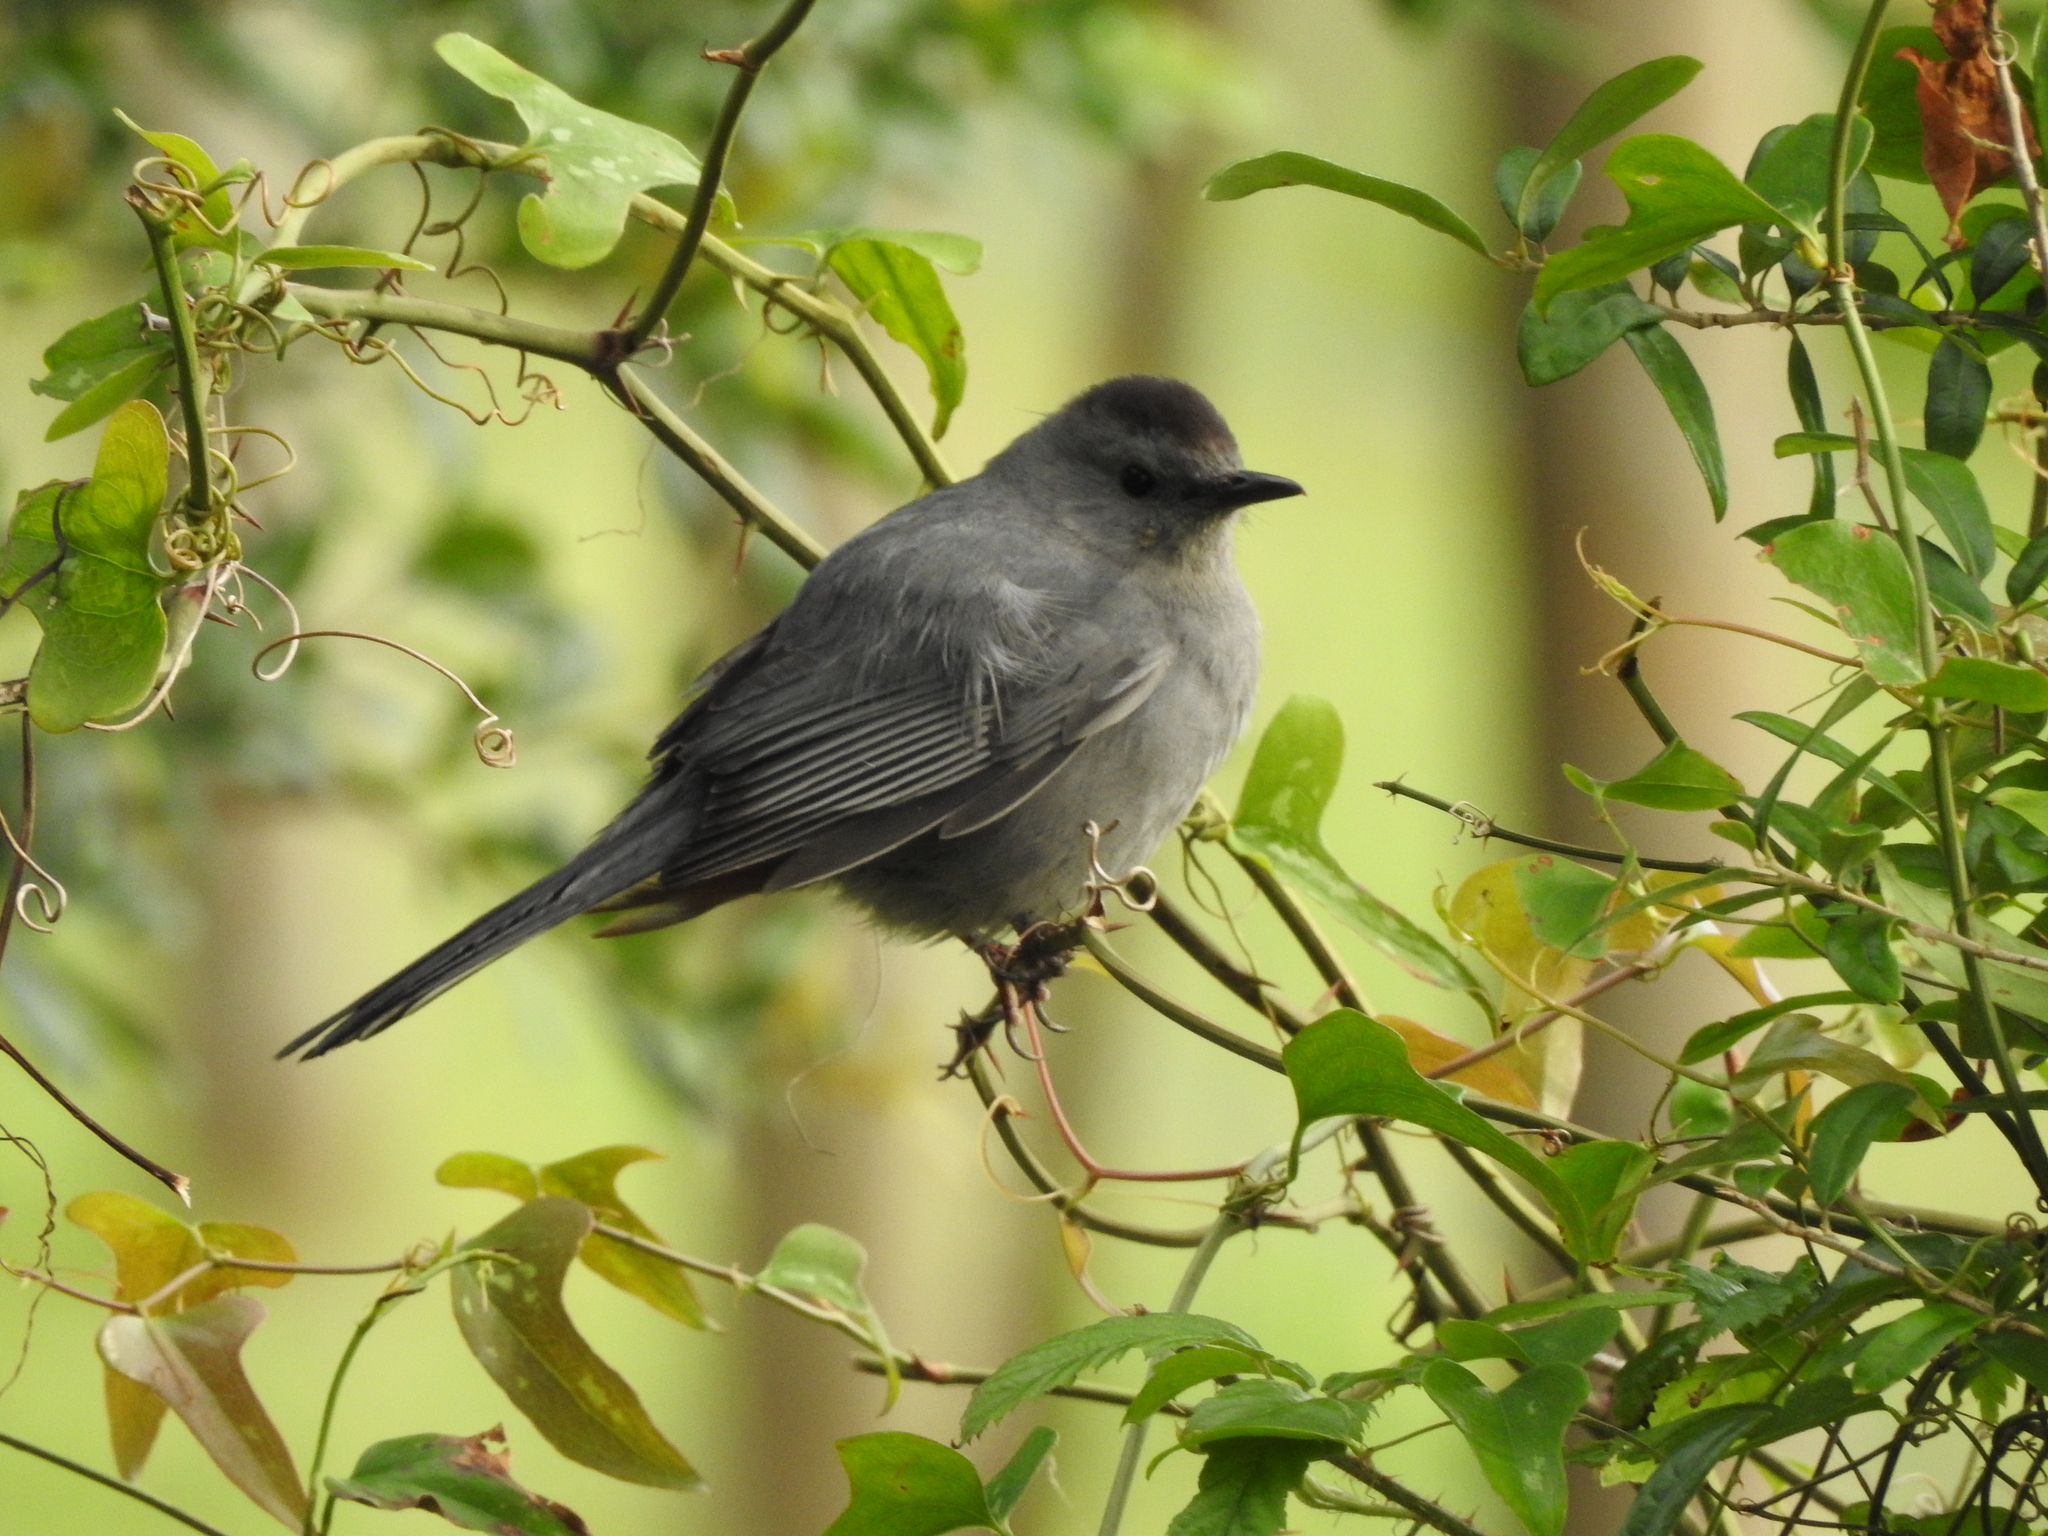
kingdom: Animalia
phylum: Chordata
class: Aves
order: Passeriformes
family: Mimidae
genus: Dumetella
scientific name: Dumetella carolinensis
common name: Gray catbird
